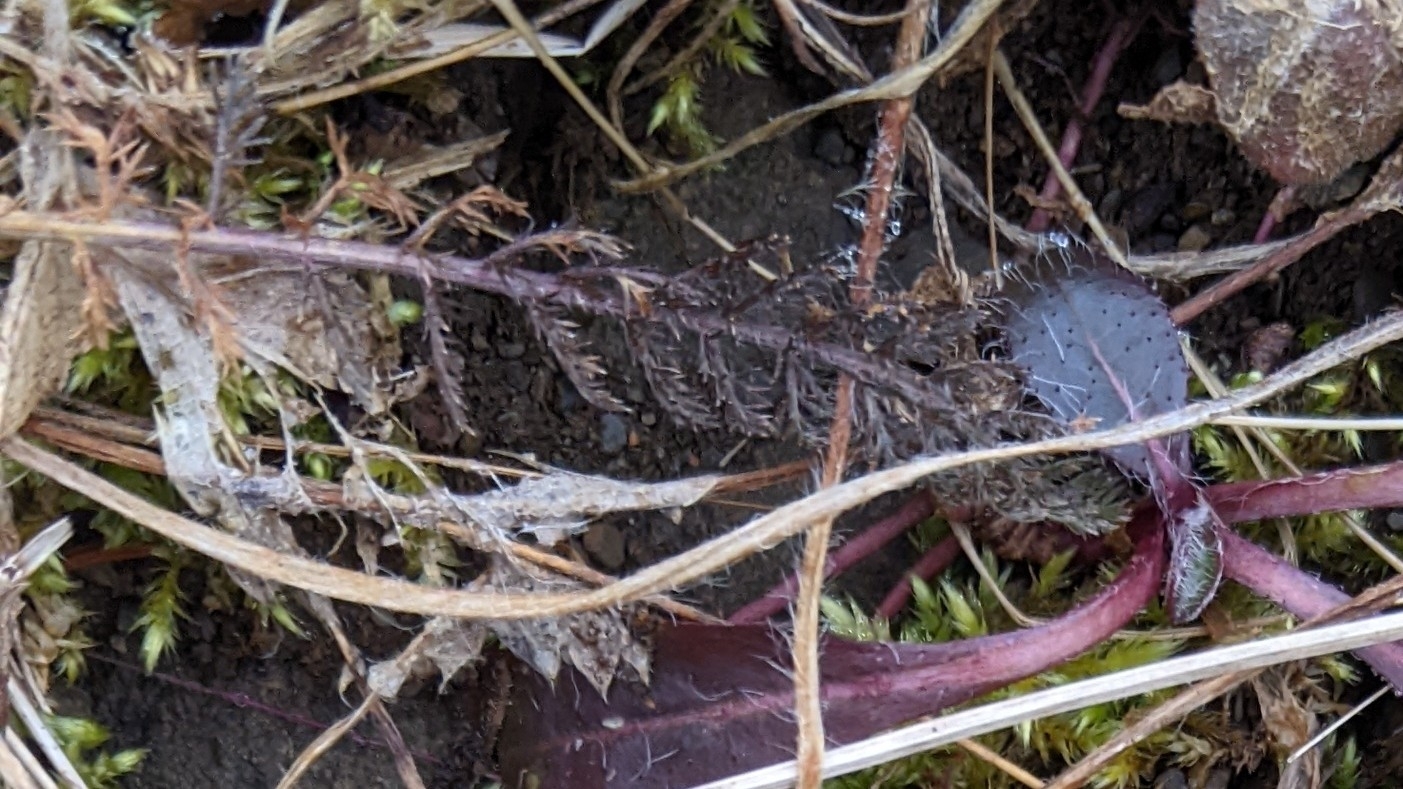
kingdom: Plantae
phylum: Tracheophyta
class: Magnoliopsida
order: Asterales
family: Asteraceae
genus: Achillea
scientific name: Achillea millefolium
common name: Yarrow
